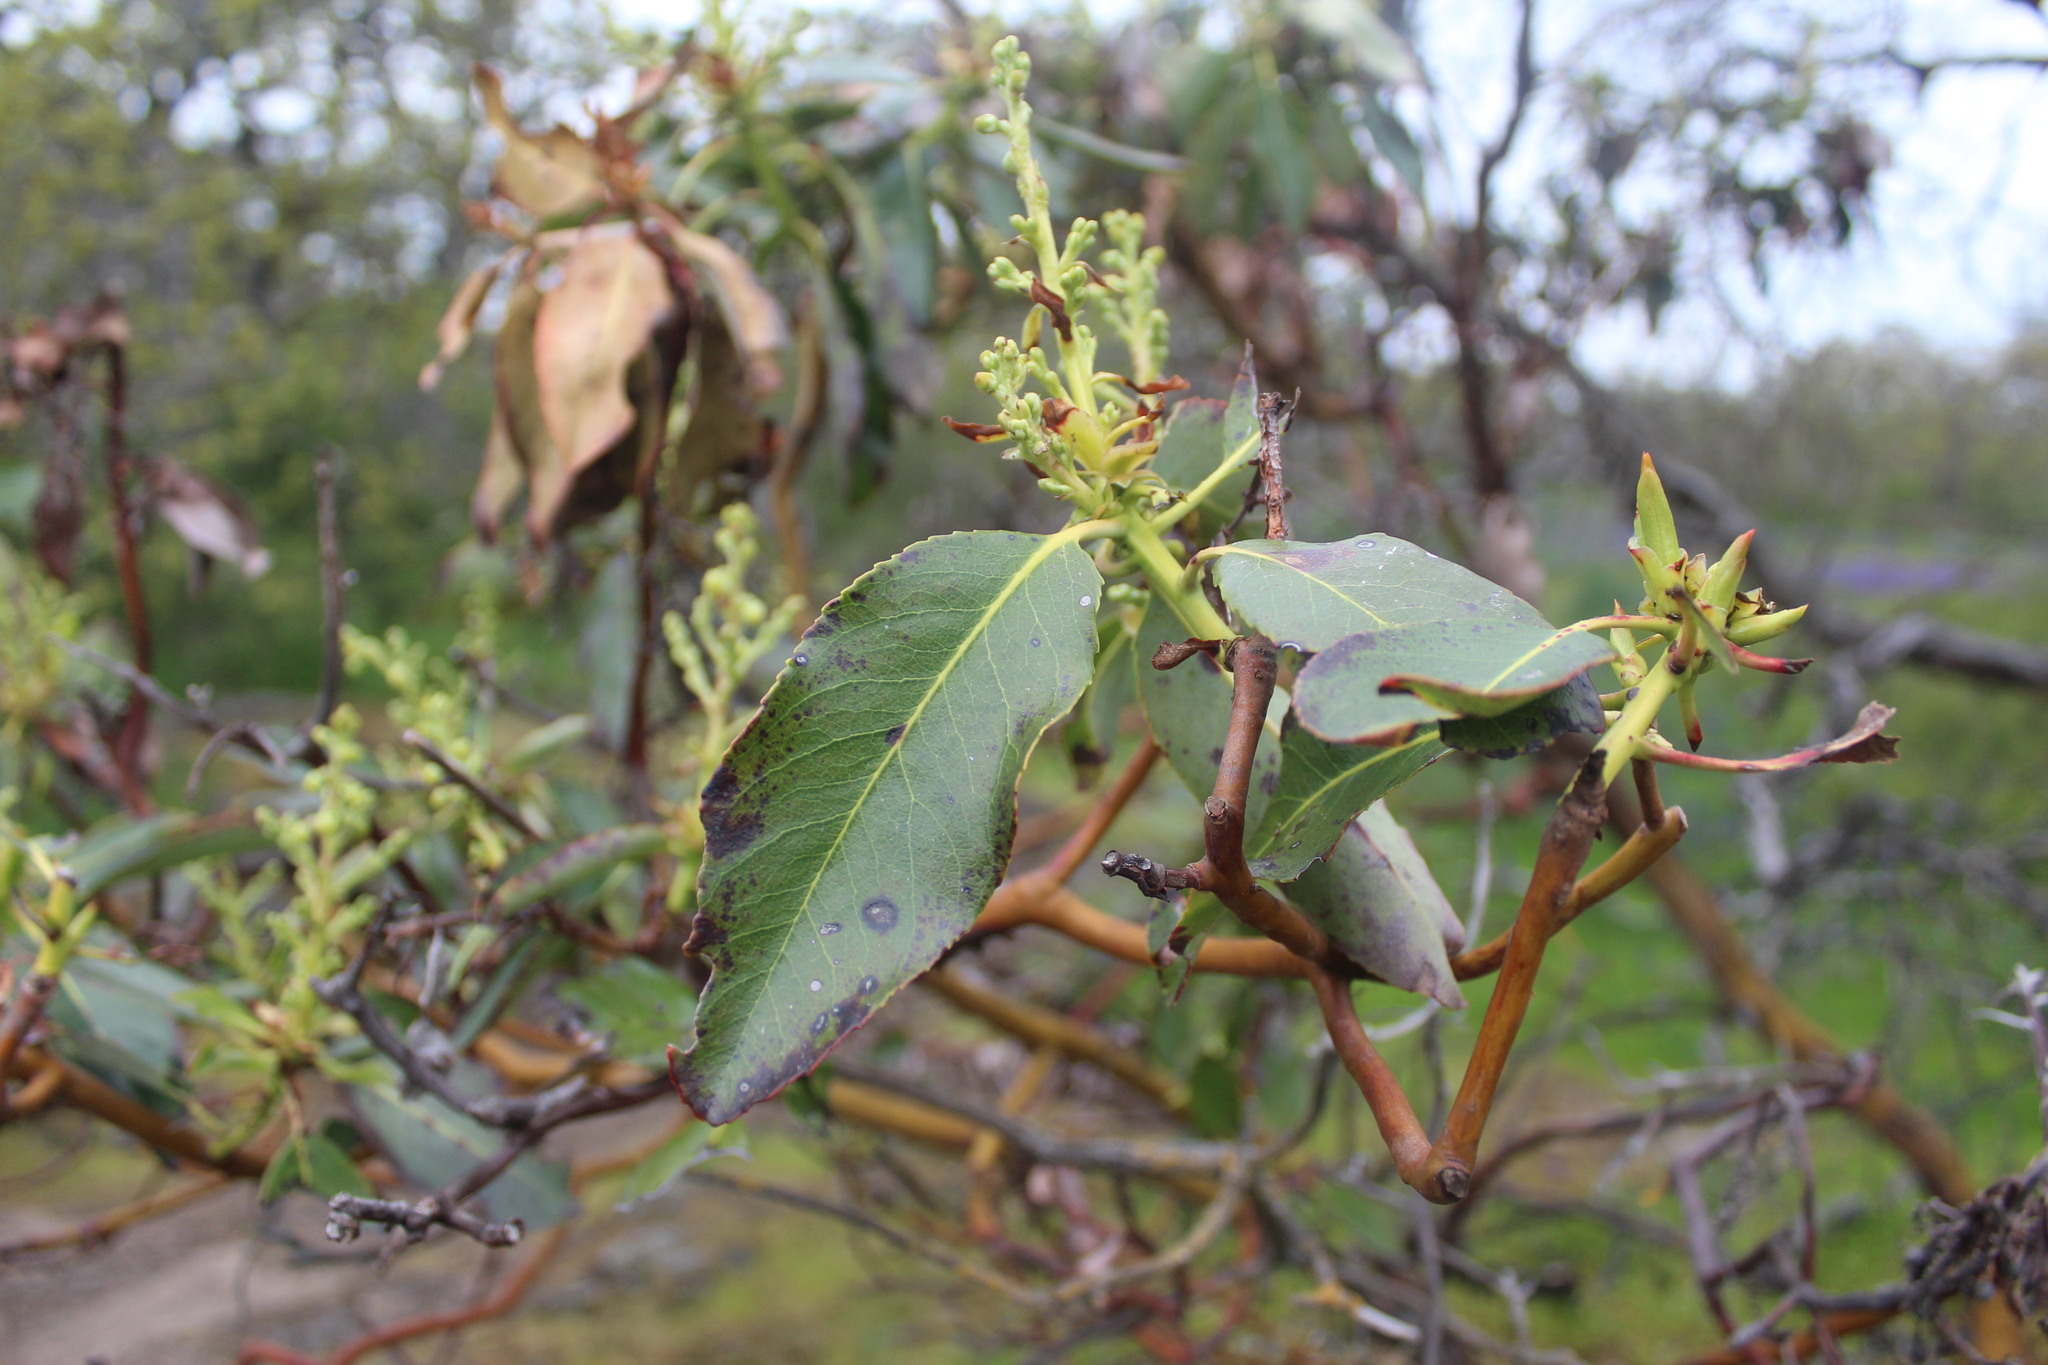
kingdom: Plantae
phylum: Tracheophyta
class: Magnoliopsida
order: Ericales
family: Ericaceae
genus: Arbutus
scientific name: Arbutus menziesii
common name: Pacific madrone
